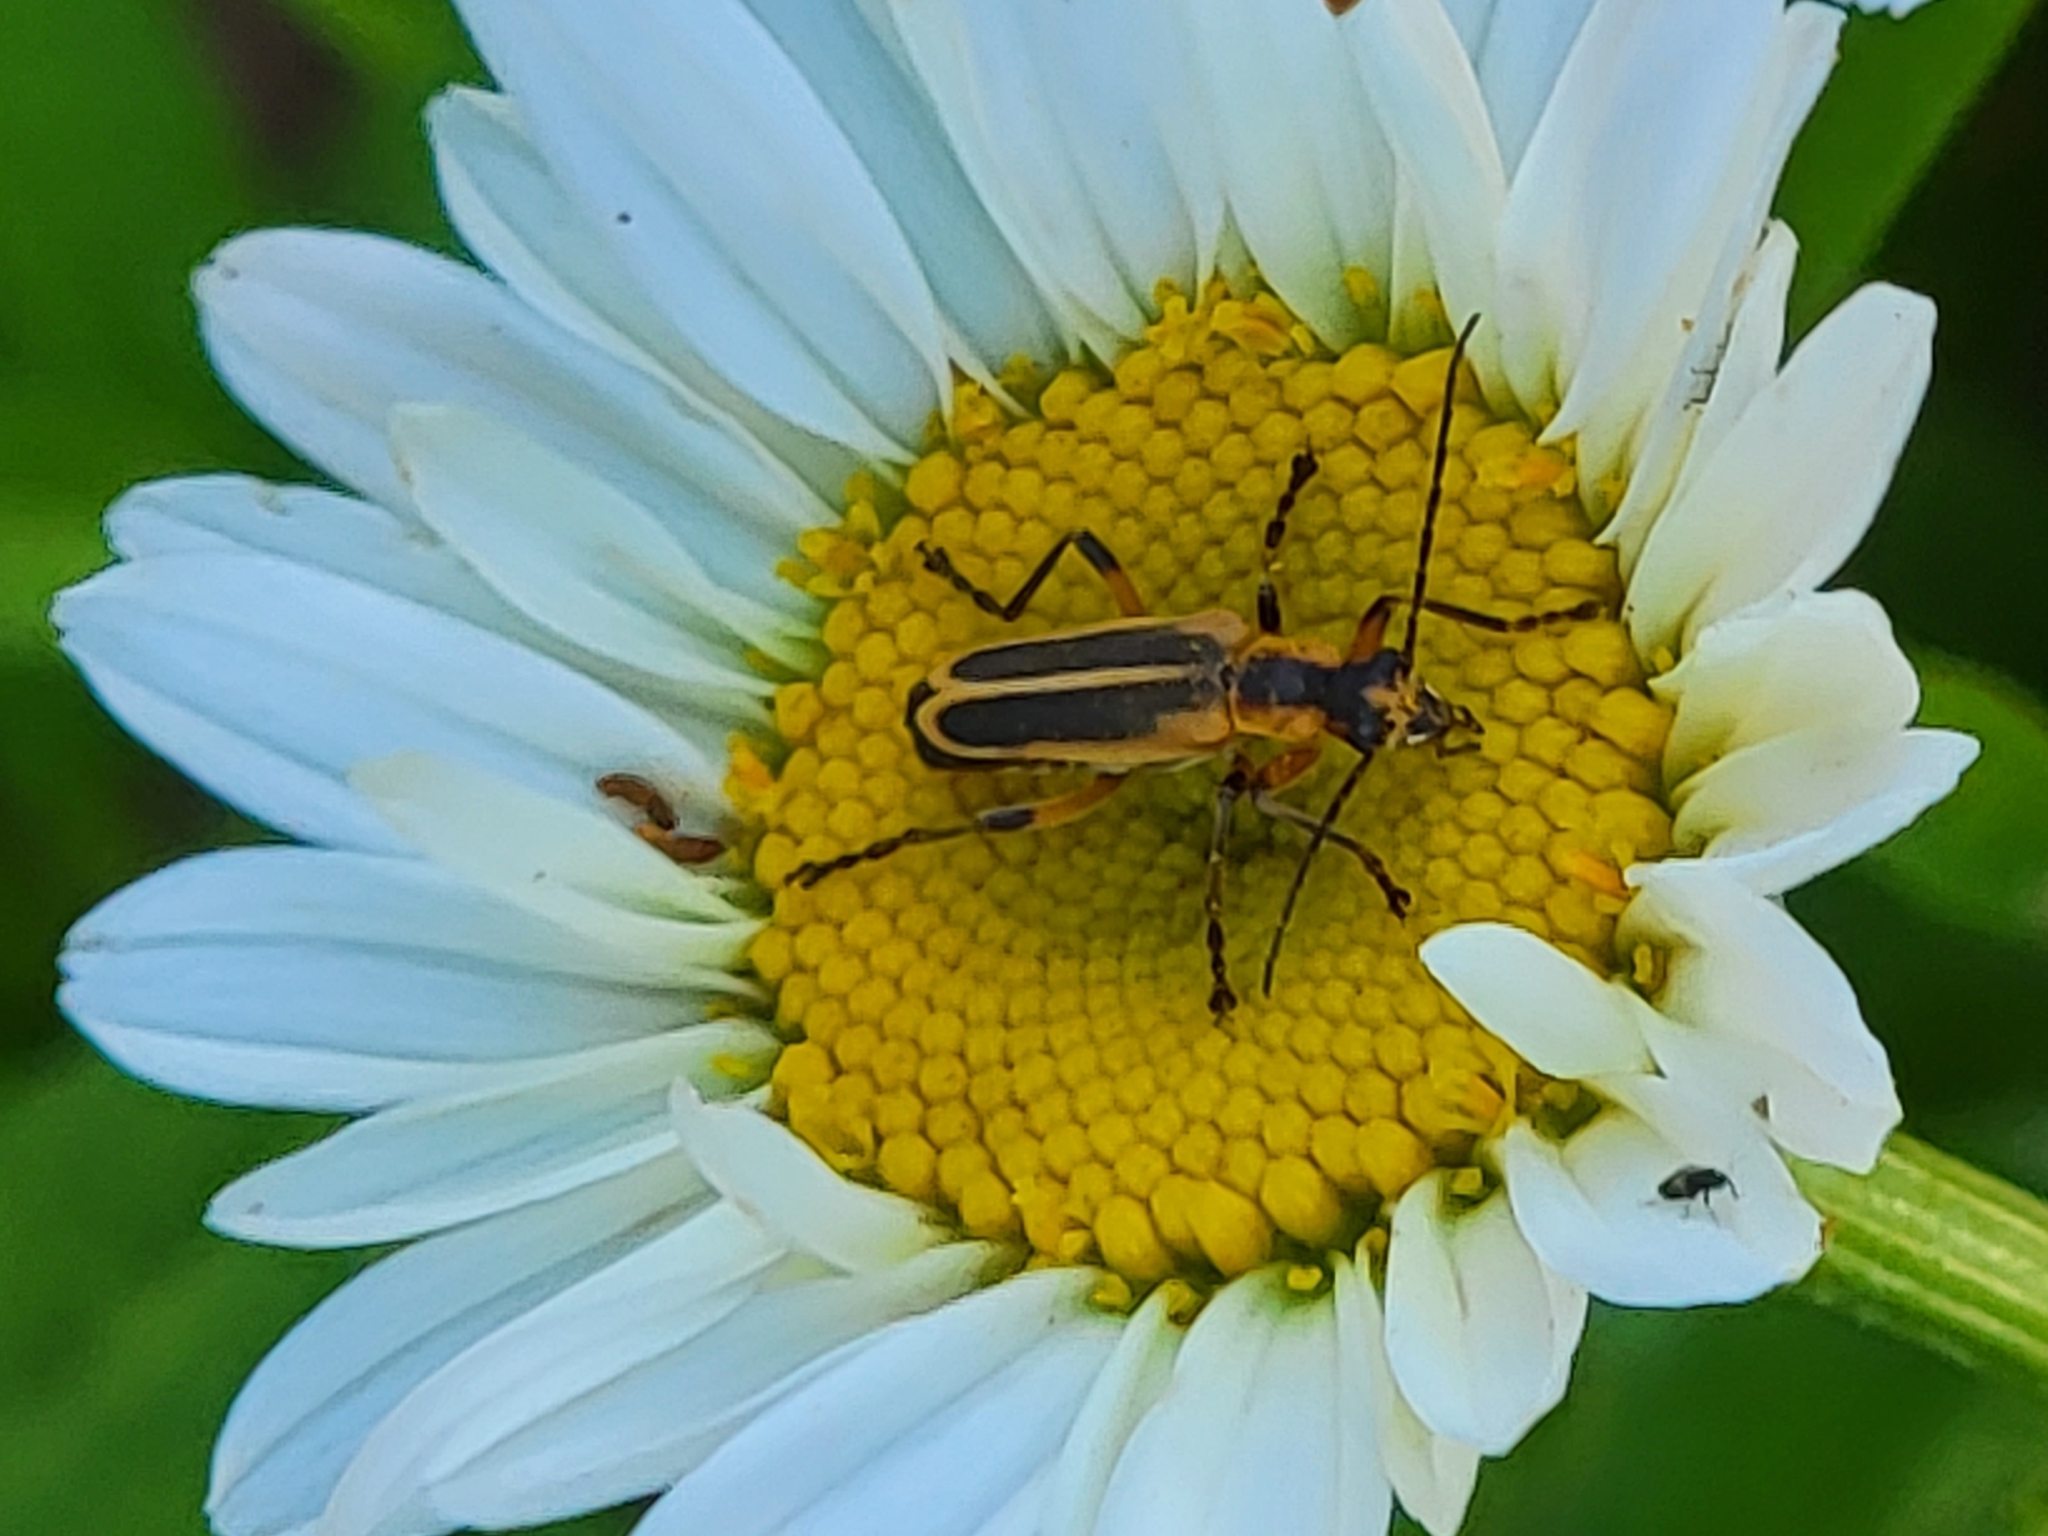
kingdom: Animalia
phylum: Arthropoda
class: Insecta
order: Coleoptera
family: Cantharidae
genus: Chauliognathus
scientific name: Chauliognathus marginatus
